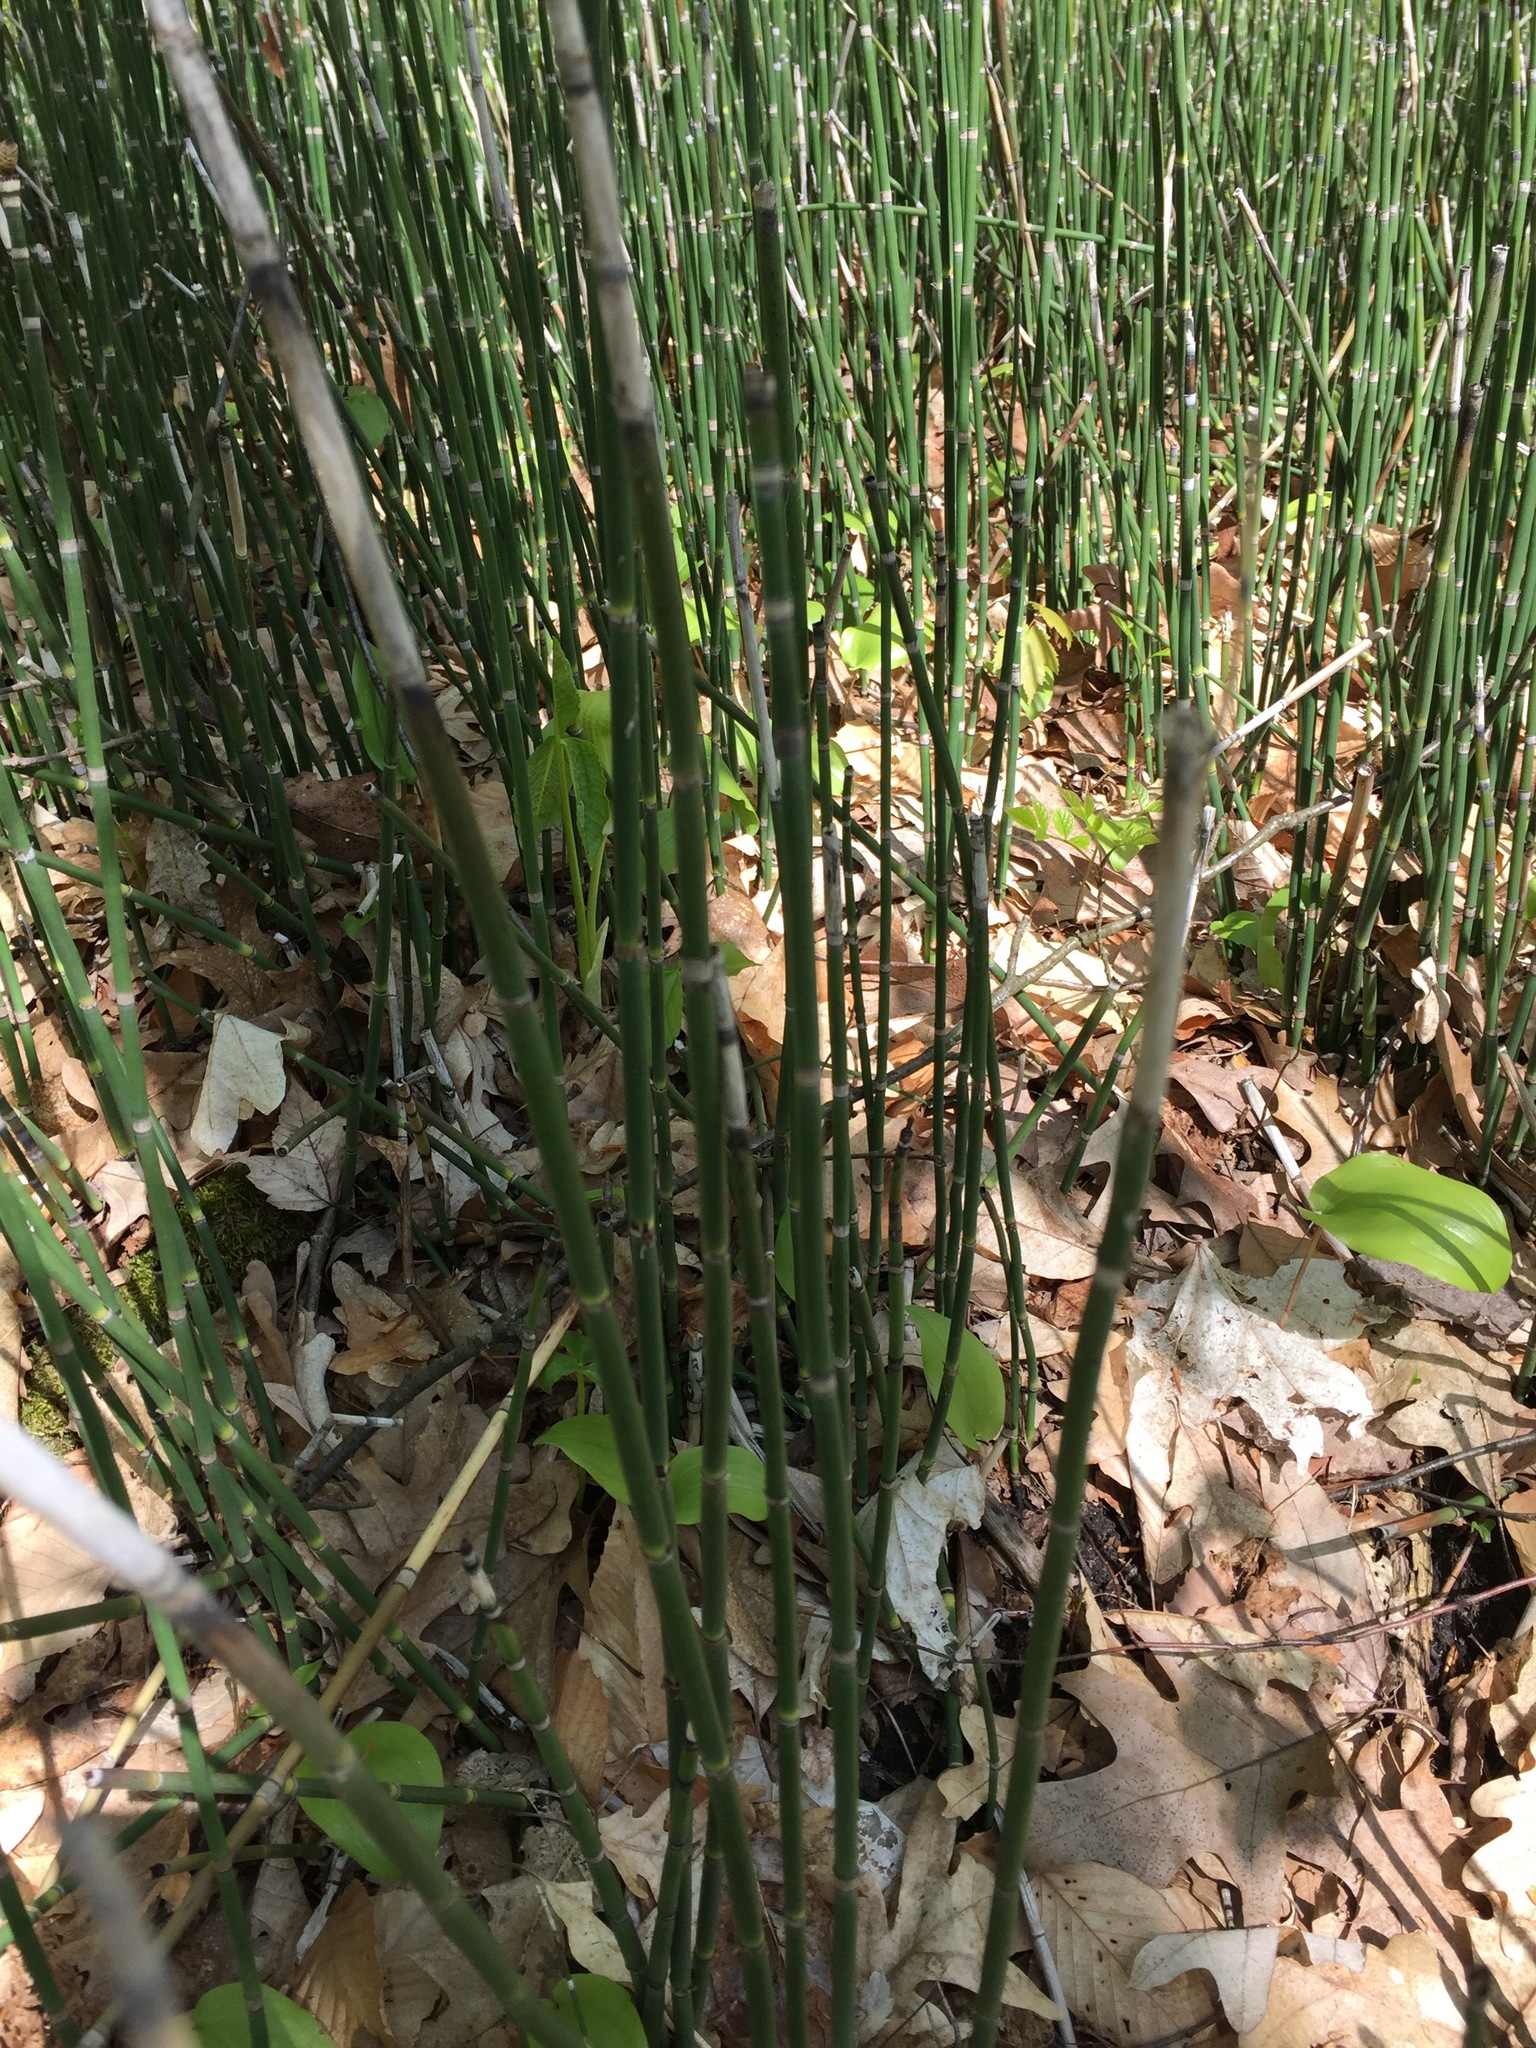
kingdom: Plantae
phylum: Tracheophyta
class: Polypodiopsida
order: Equisetales
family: Equisetaceae
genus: Equisetum
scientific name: Equisetum hyemale
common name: Rough horsetail
